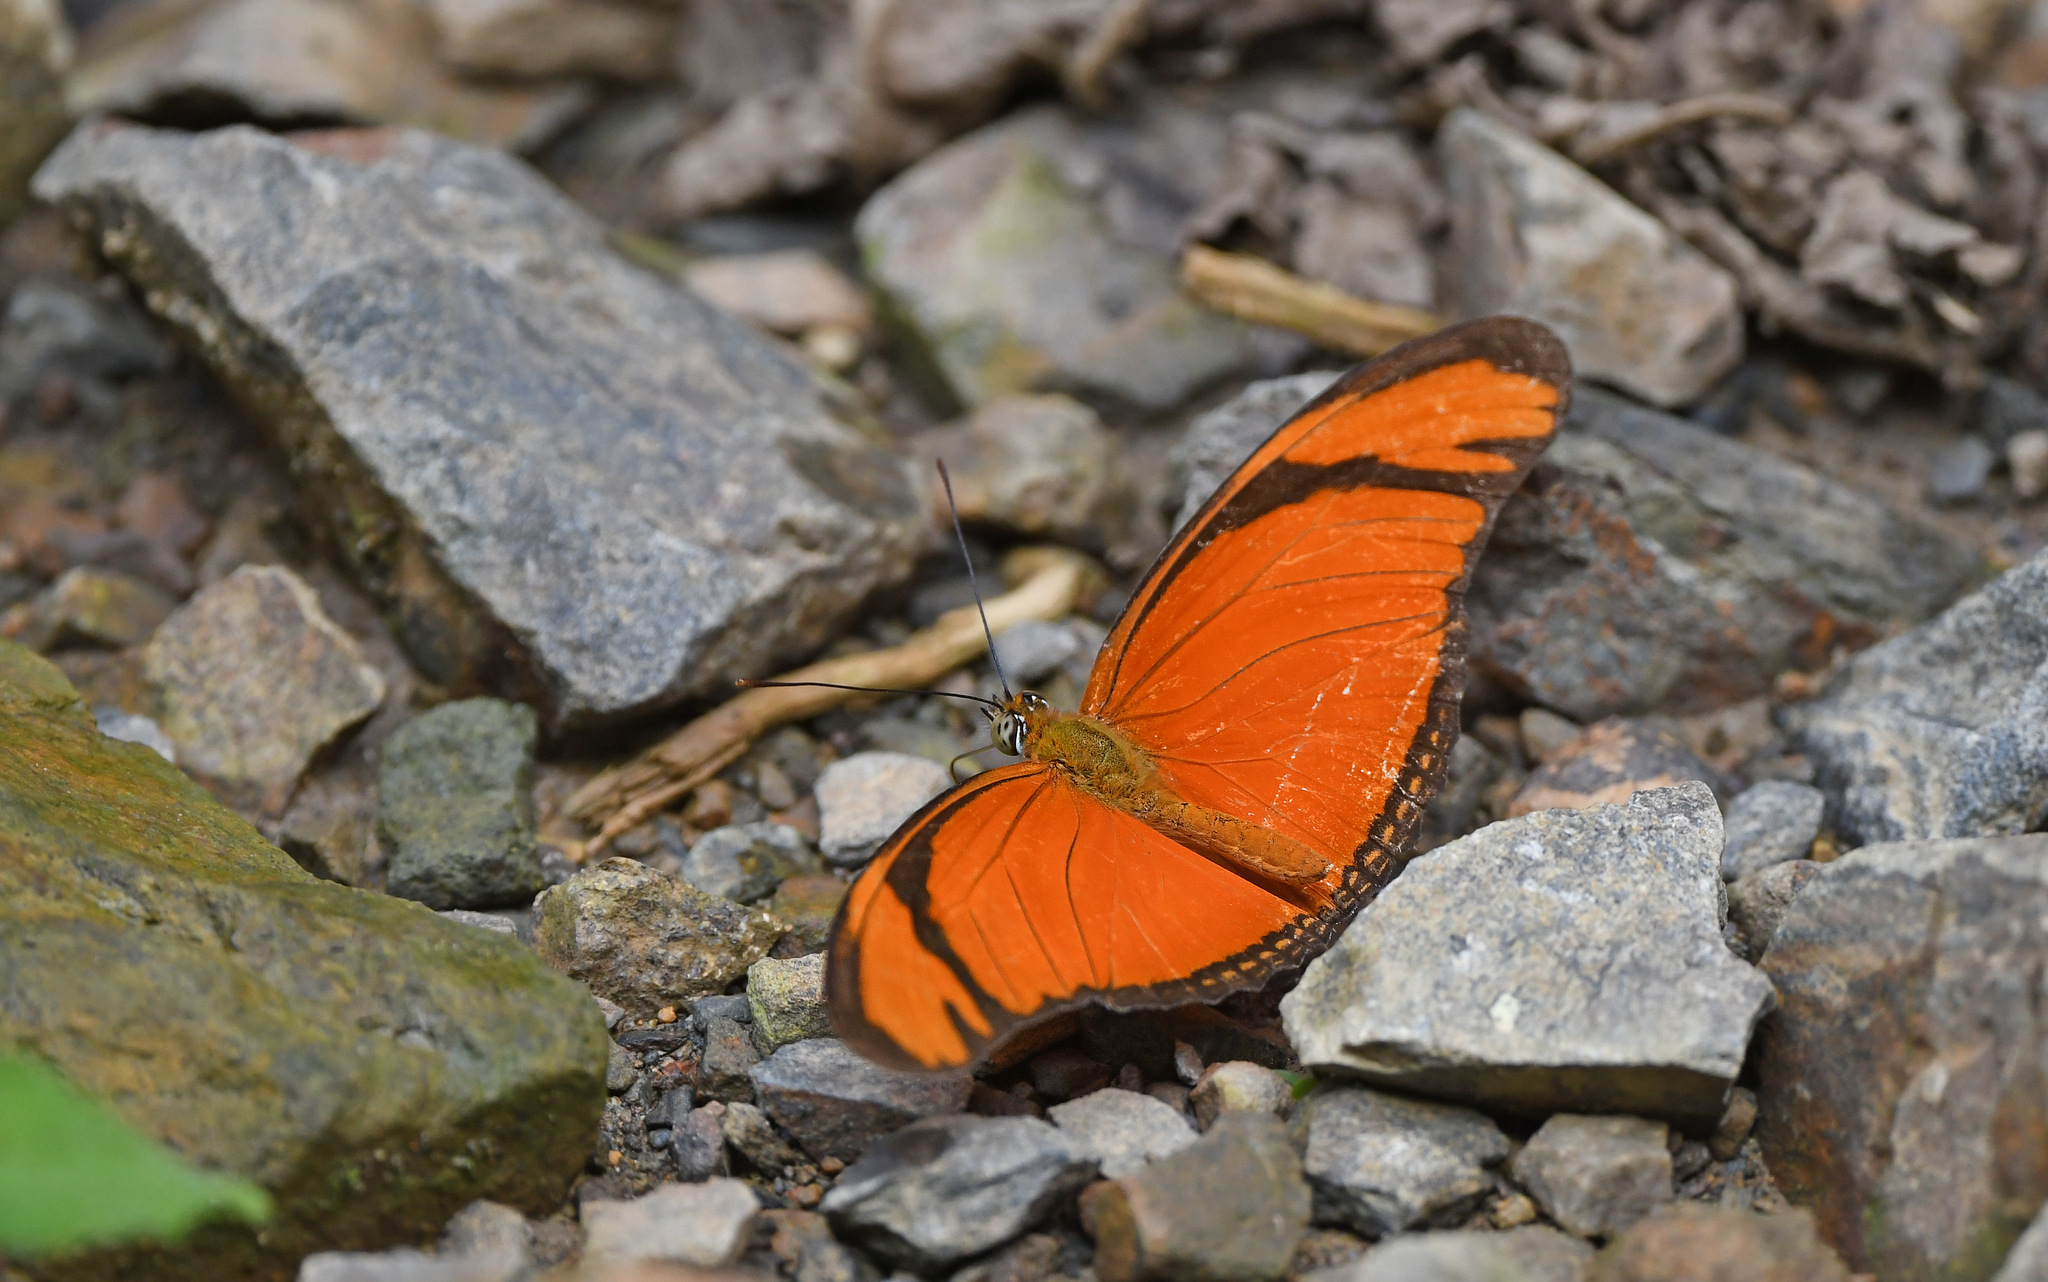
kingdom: Animalia
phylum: Arthropoda
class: Insecta
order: Lepidoptera
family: Nymphalidae
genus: Dryas
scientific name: Dryas iulia
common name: Flambeau
